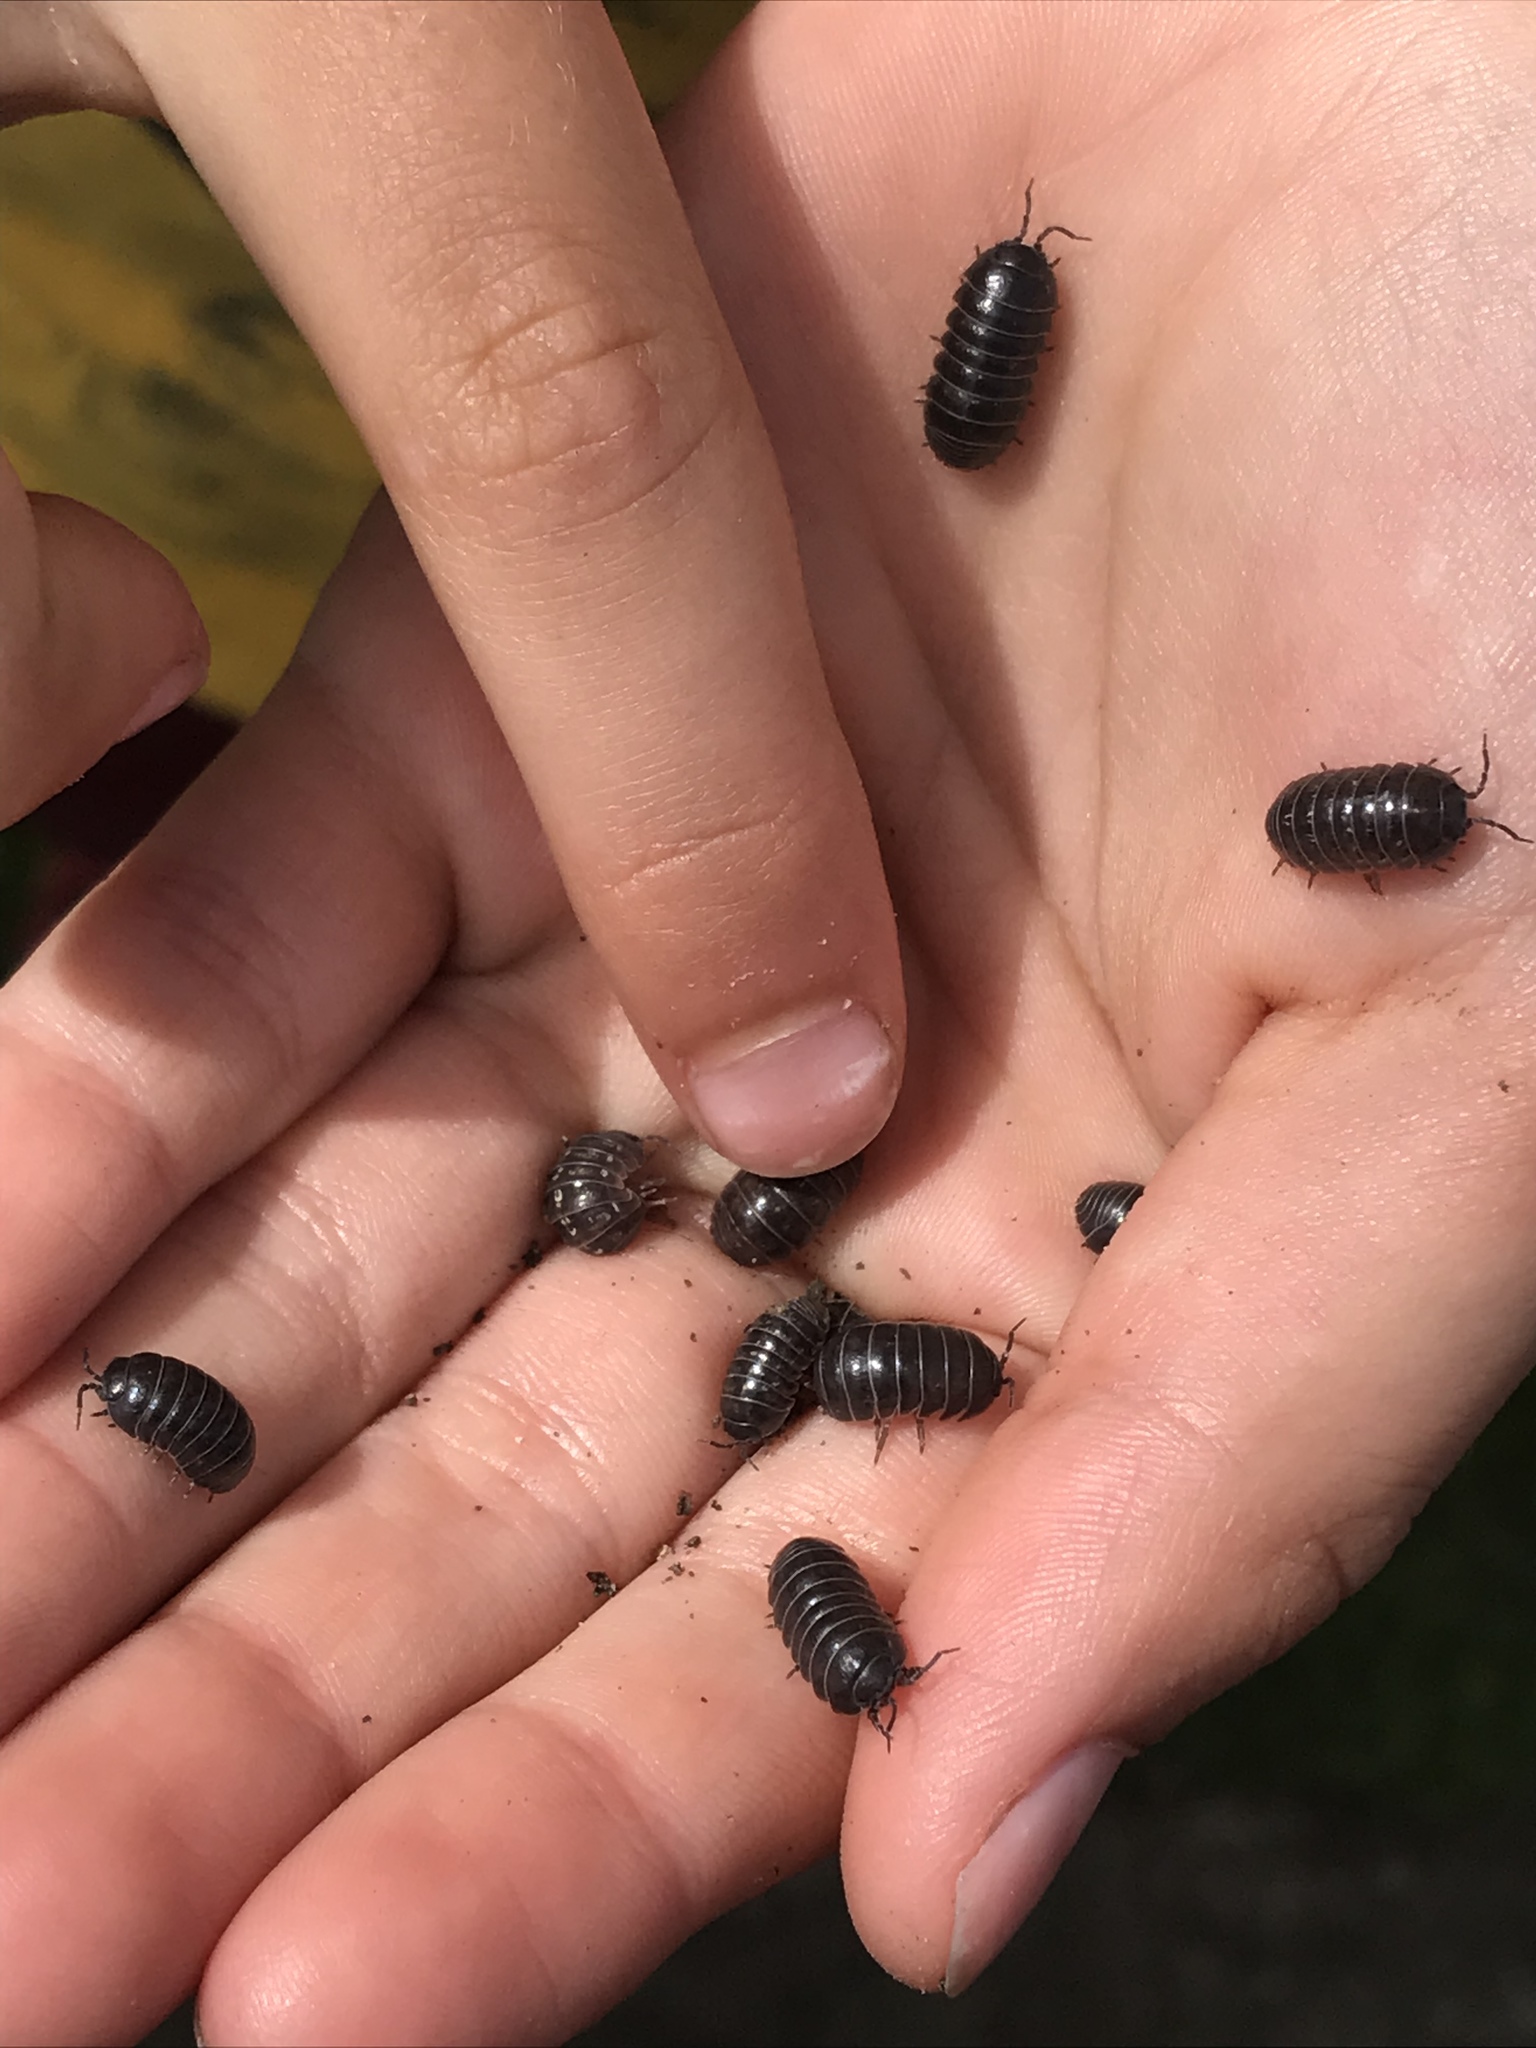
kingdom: Animalia
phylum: Arthropoda
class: Malacostraca
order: Isopoda
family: Armadillidiidae
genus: Armadillidium
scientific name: Armadillidium vulgare
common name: Common pill woodlouse
